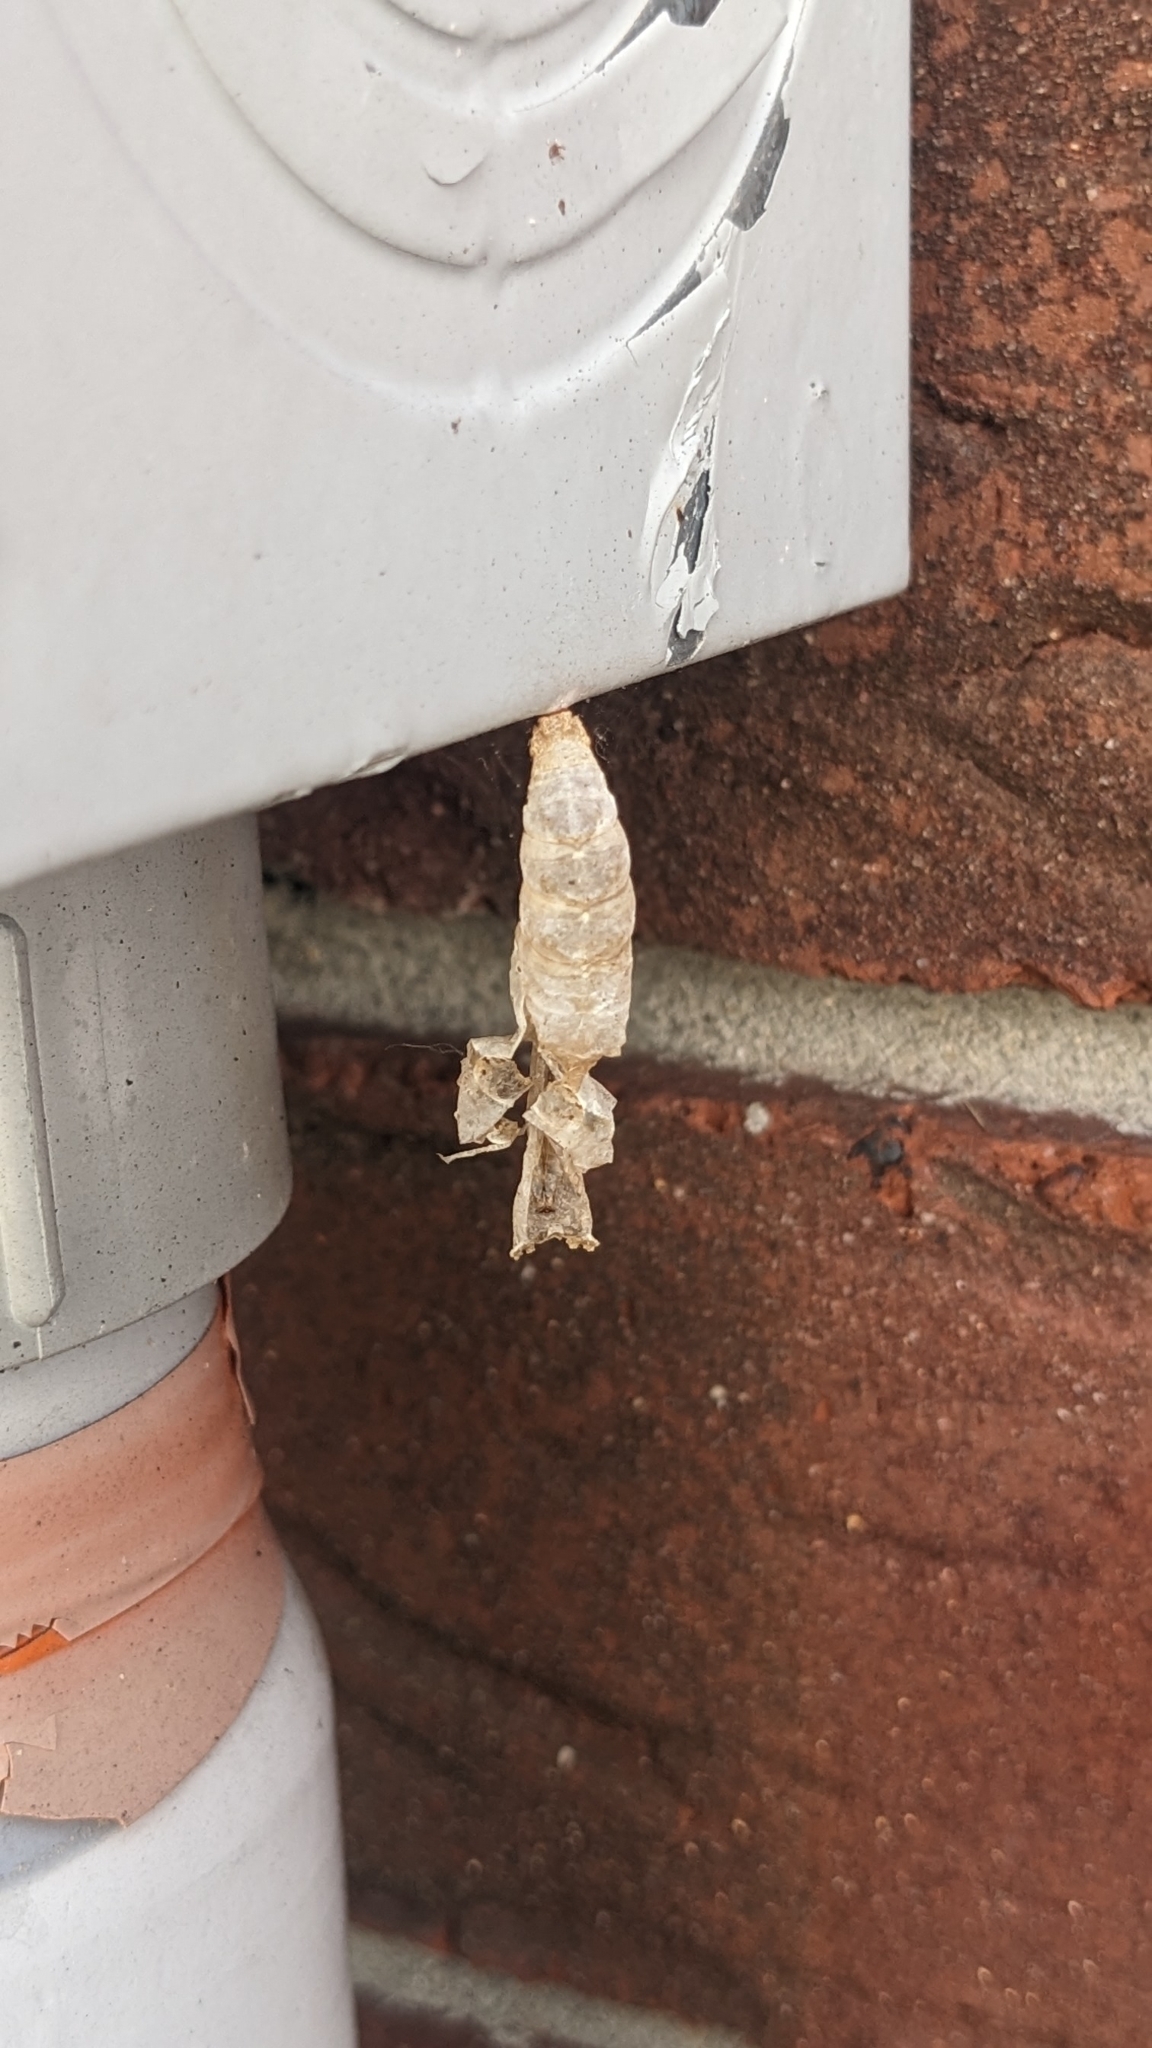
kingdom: Animalia
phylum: Arthropoda
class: Insecta
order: Lepidoptera
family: Nymphalidae
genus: Dione
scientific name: Dione vanillae
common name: Gulf fritillary
